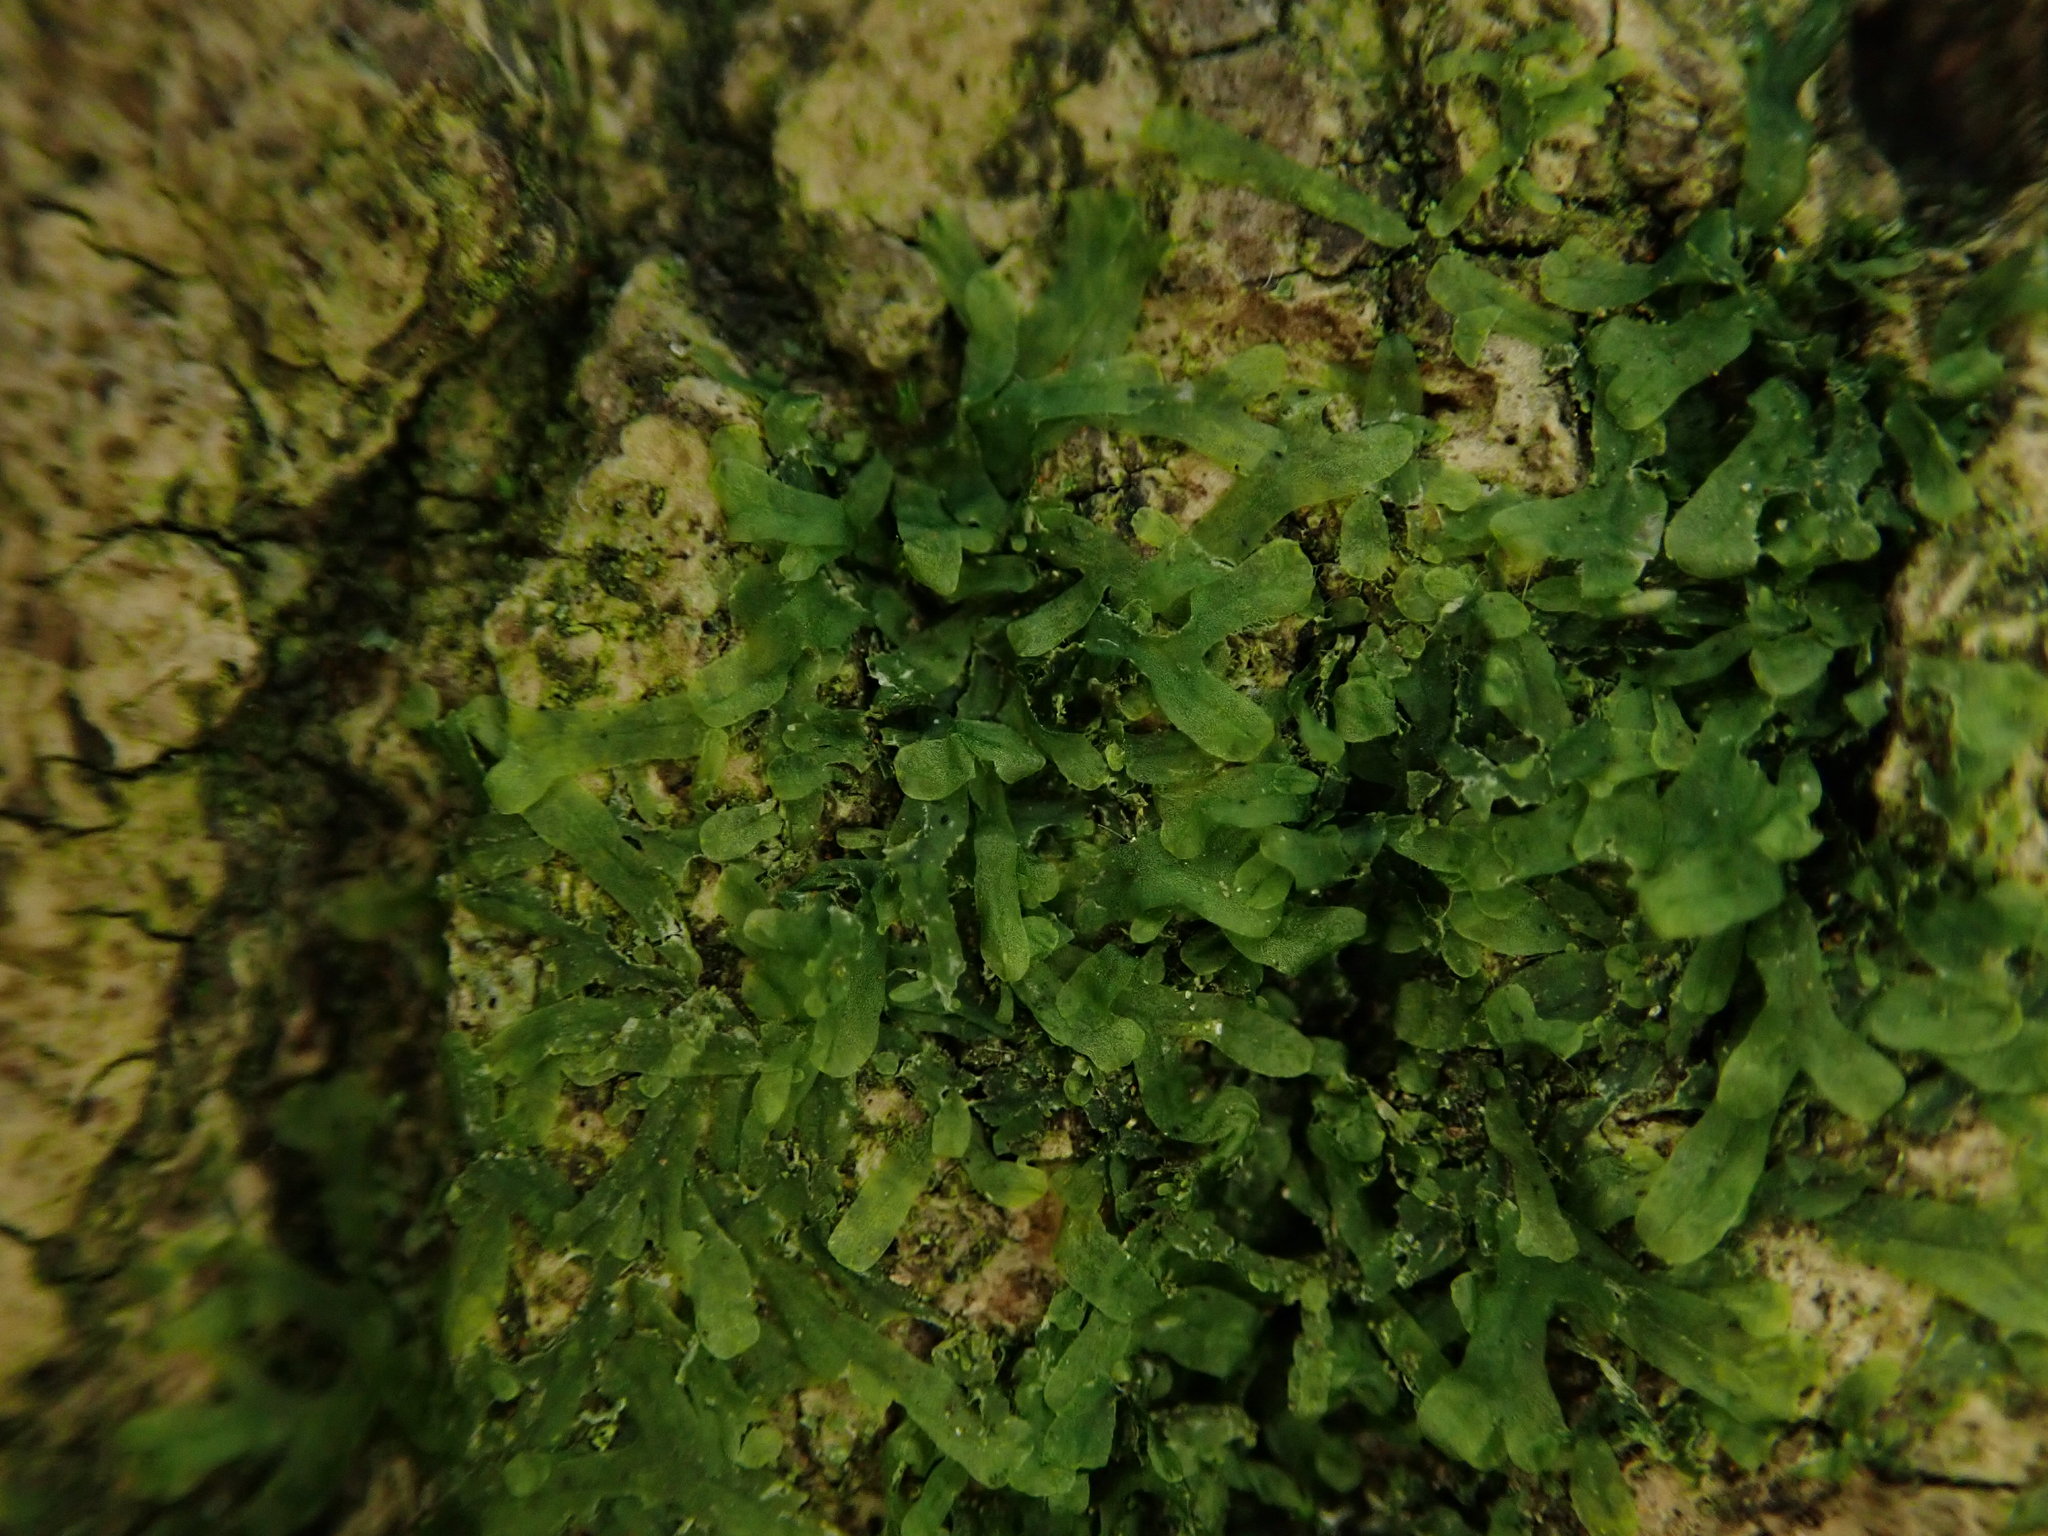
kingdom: Plantae
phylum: Marchantiophyta
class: Jungermanniopsida
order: Metzgeriales
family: Metzgeriaceae
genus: Metzgeria
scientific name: Metzgeria furcata
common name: Forked veilwort
